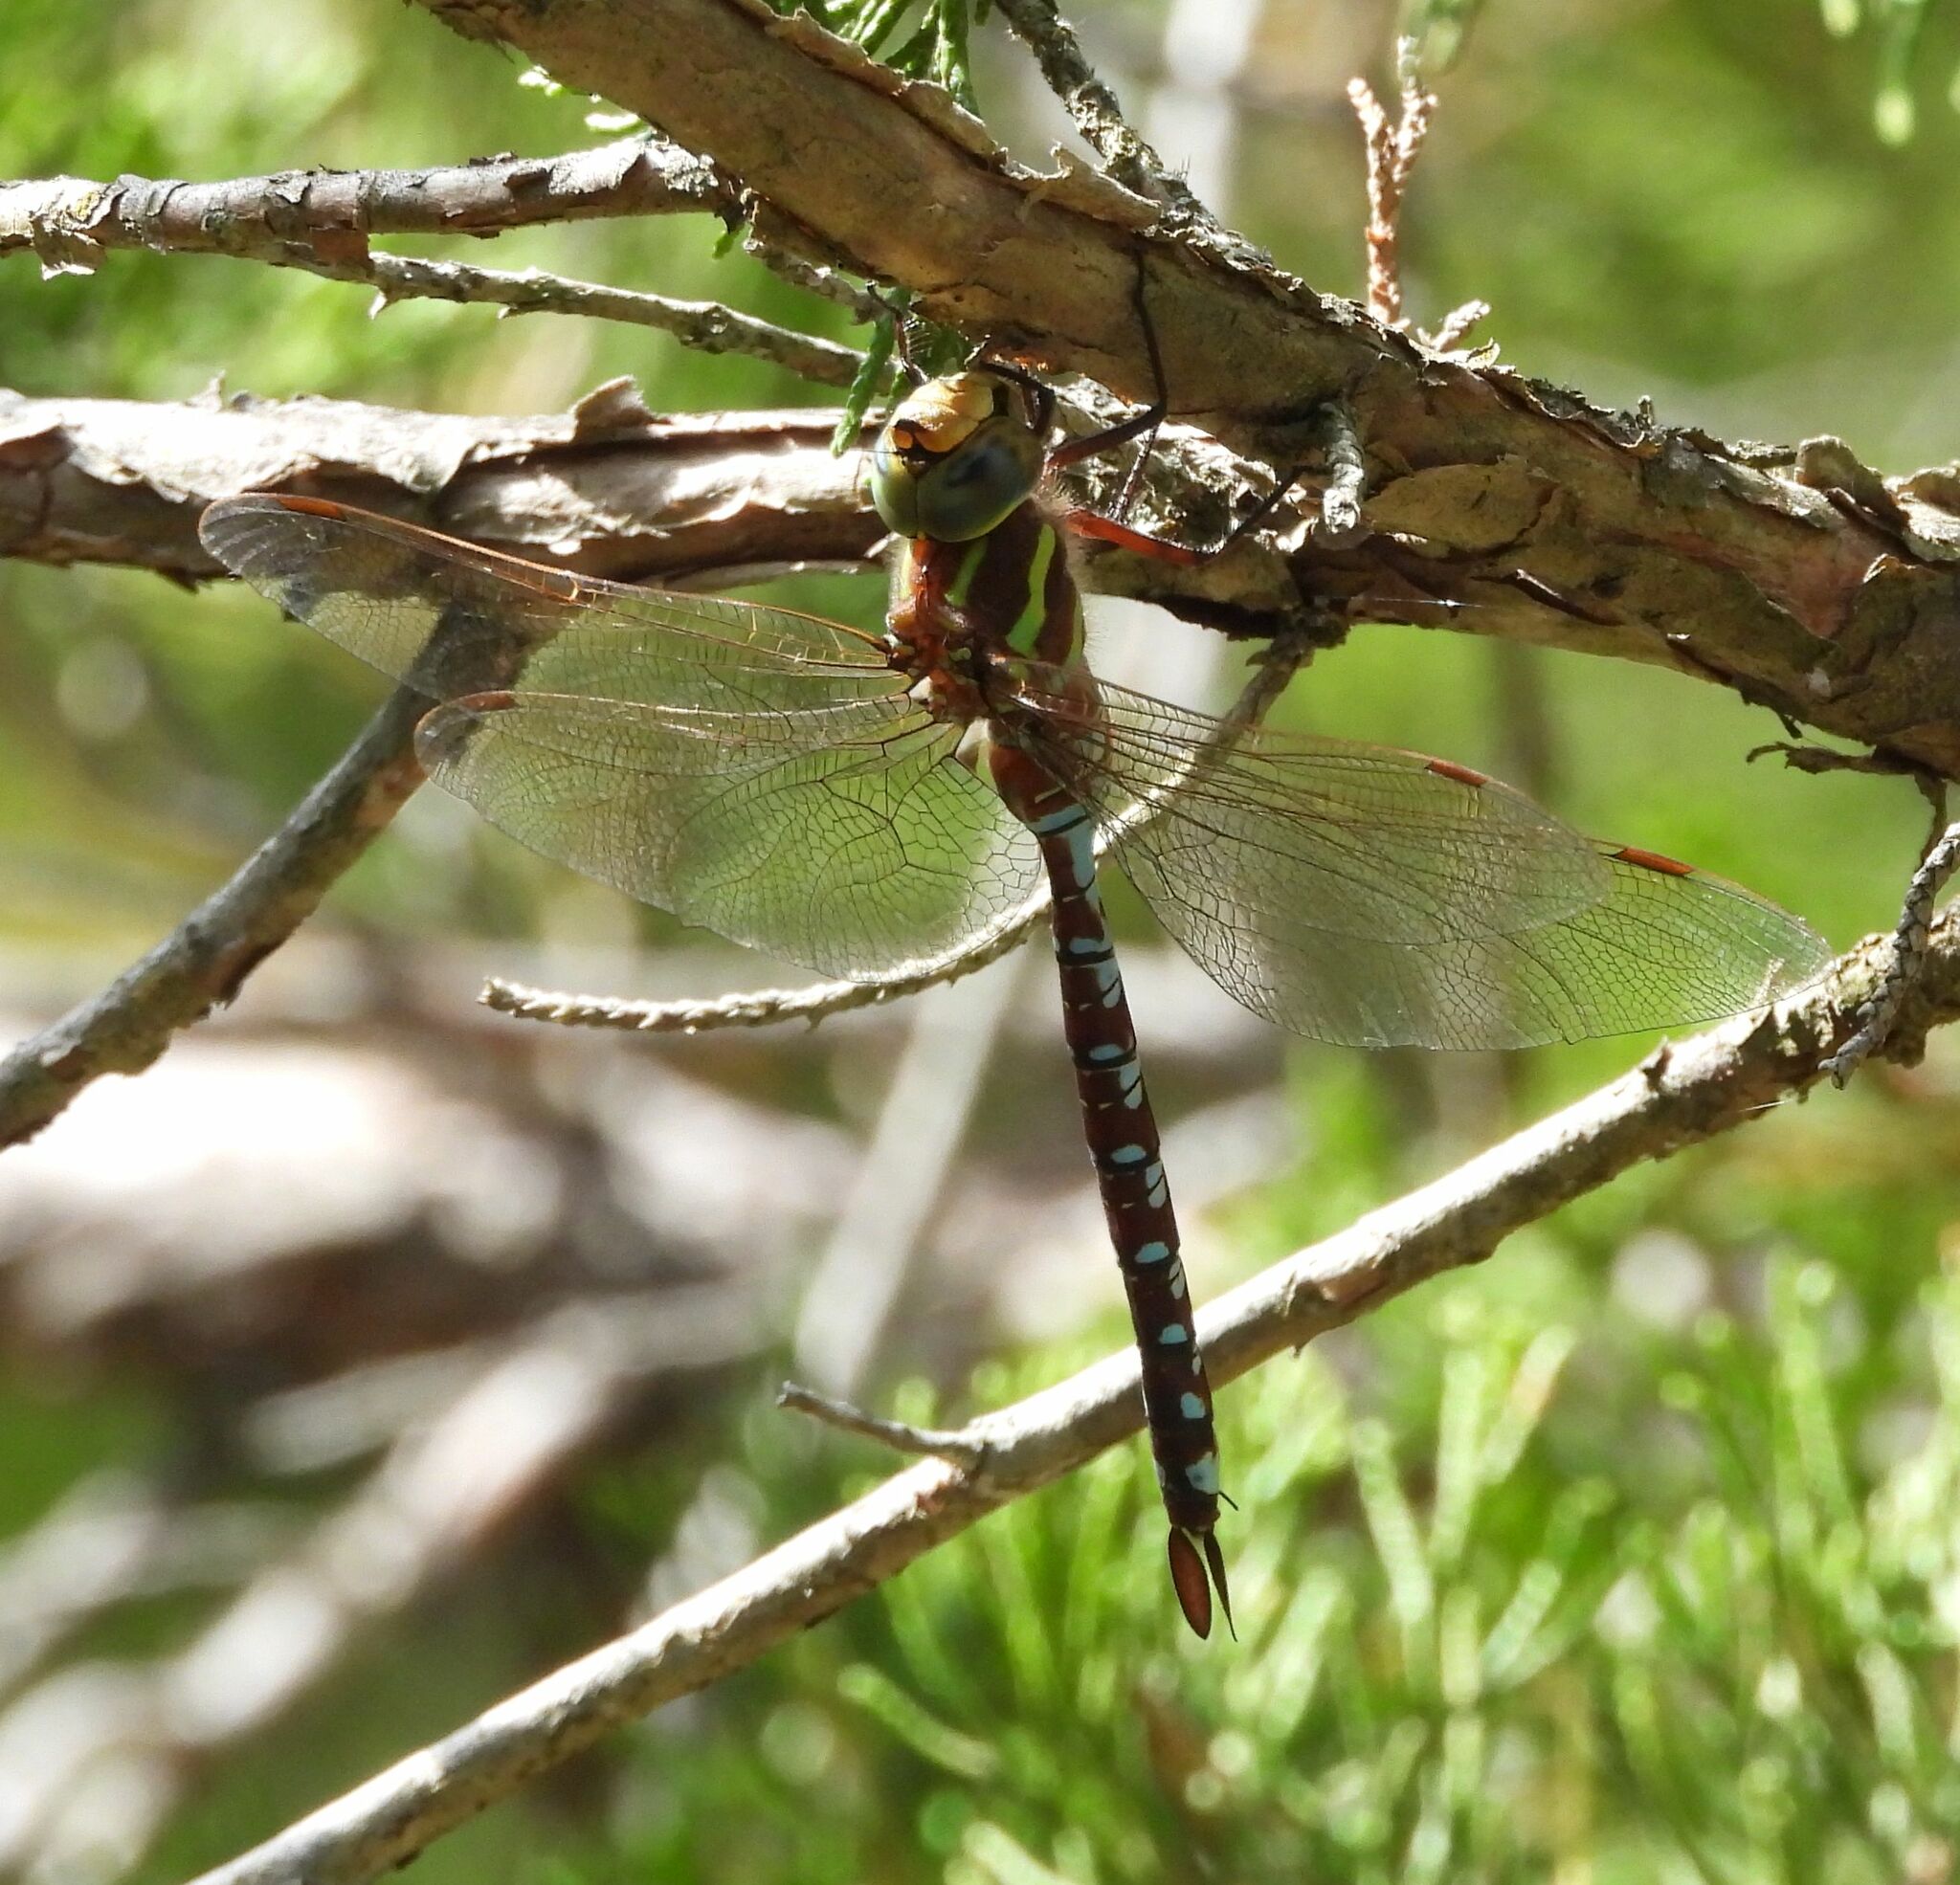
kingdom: Animalia
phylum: Arthropoda
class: Insecta
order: Odonata
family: Aeshnidae
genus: Aeshna
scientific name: Aeshna constricta
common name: Lance-tipped darner
